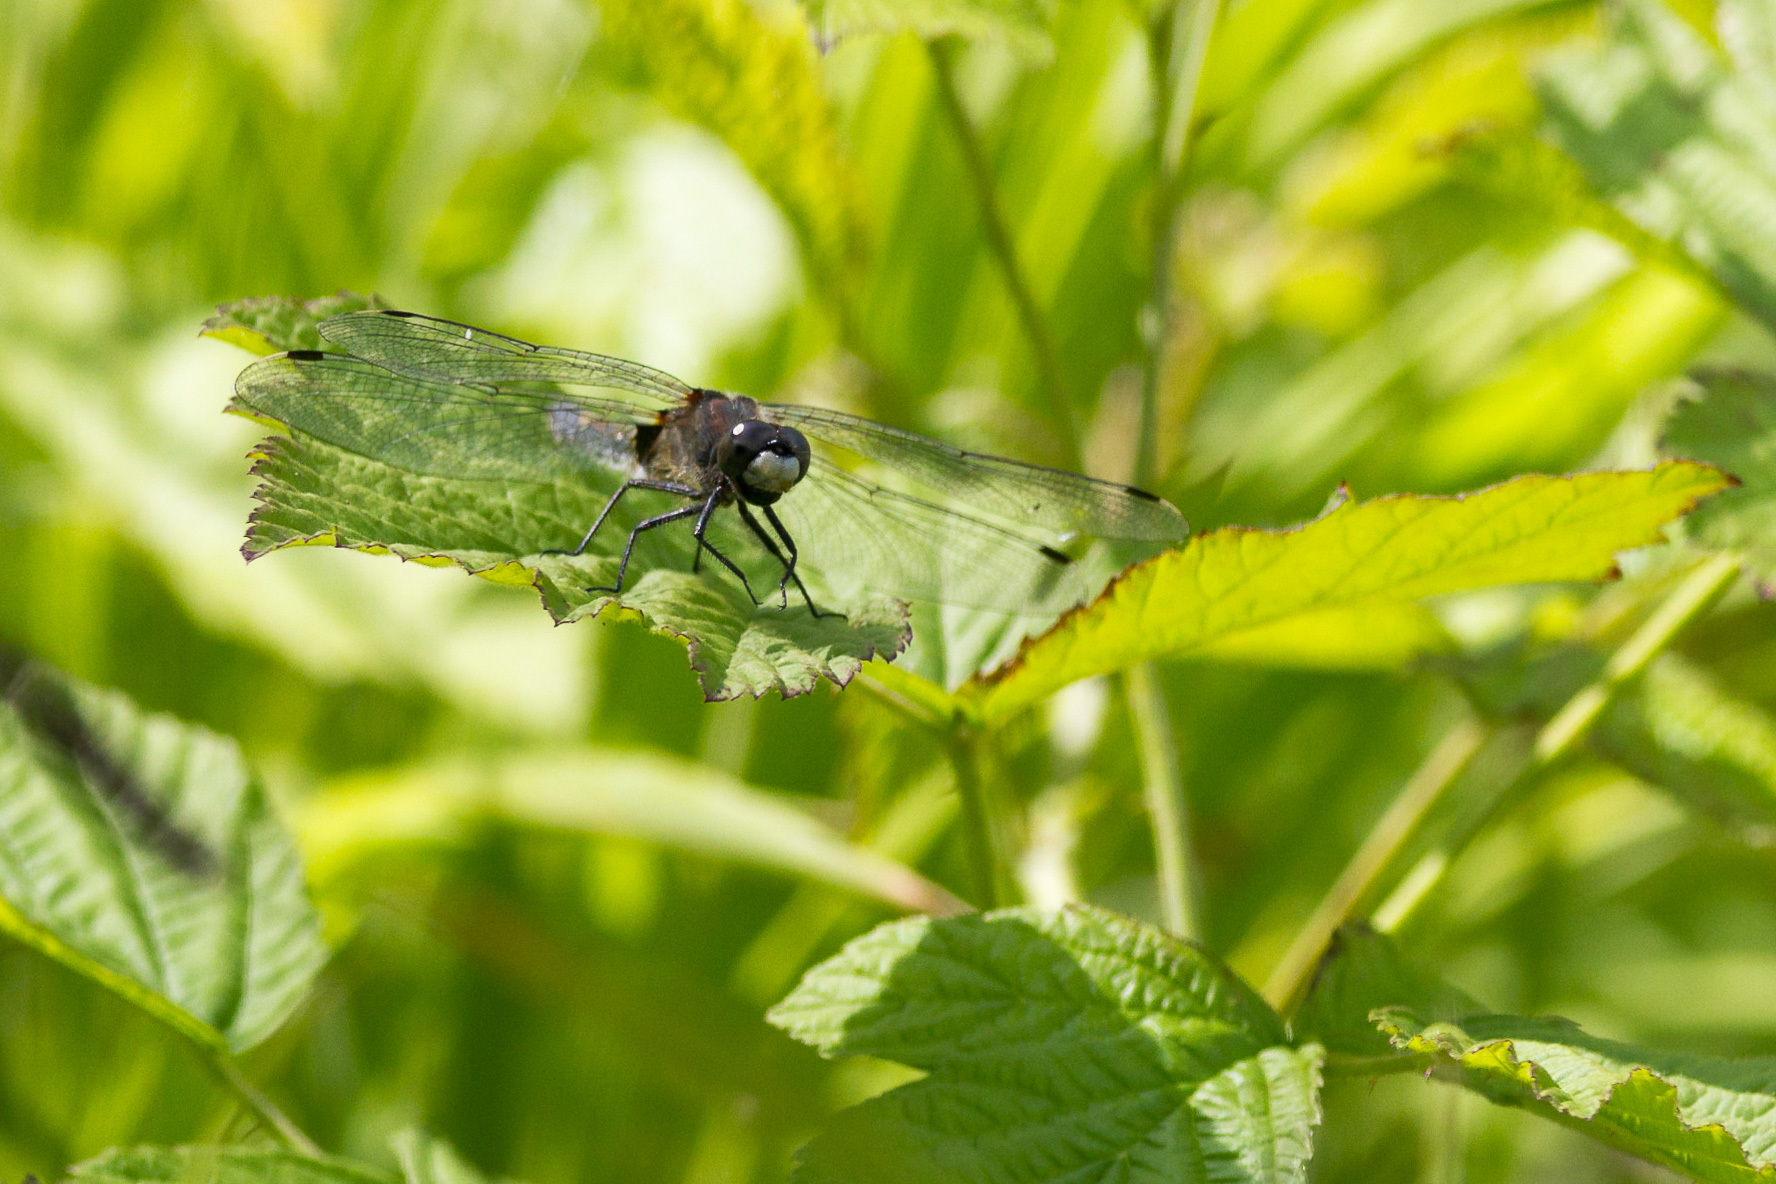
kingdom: Animalia
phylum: Arthropoda
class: Insecta
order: Odonata
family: Libellulidae
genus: Leucorrhinia
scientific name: Leucorrhinia pectoralis
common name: Yellow-spotted whiteface
